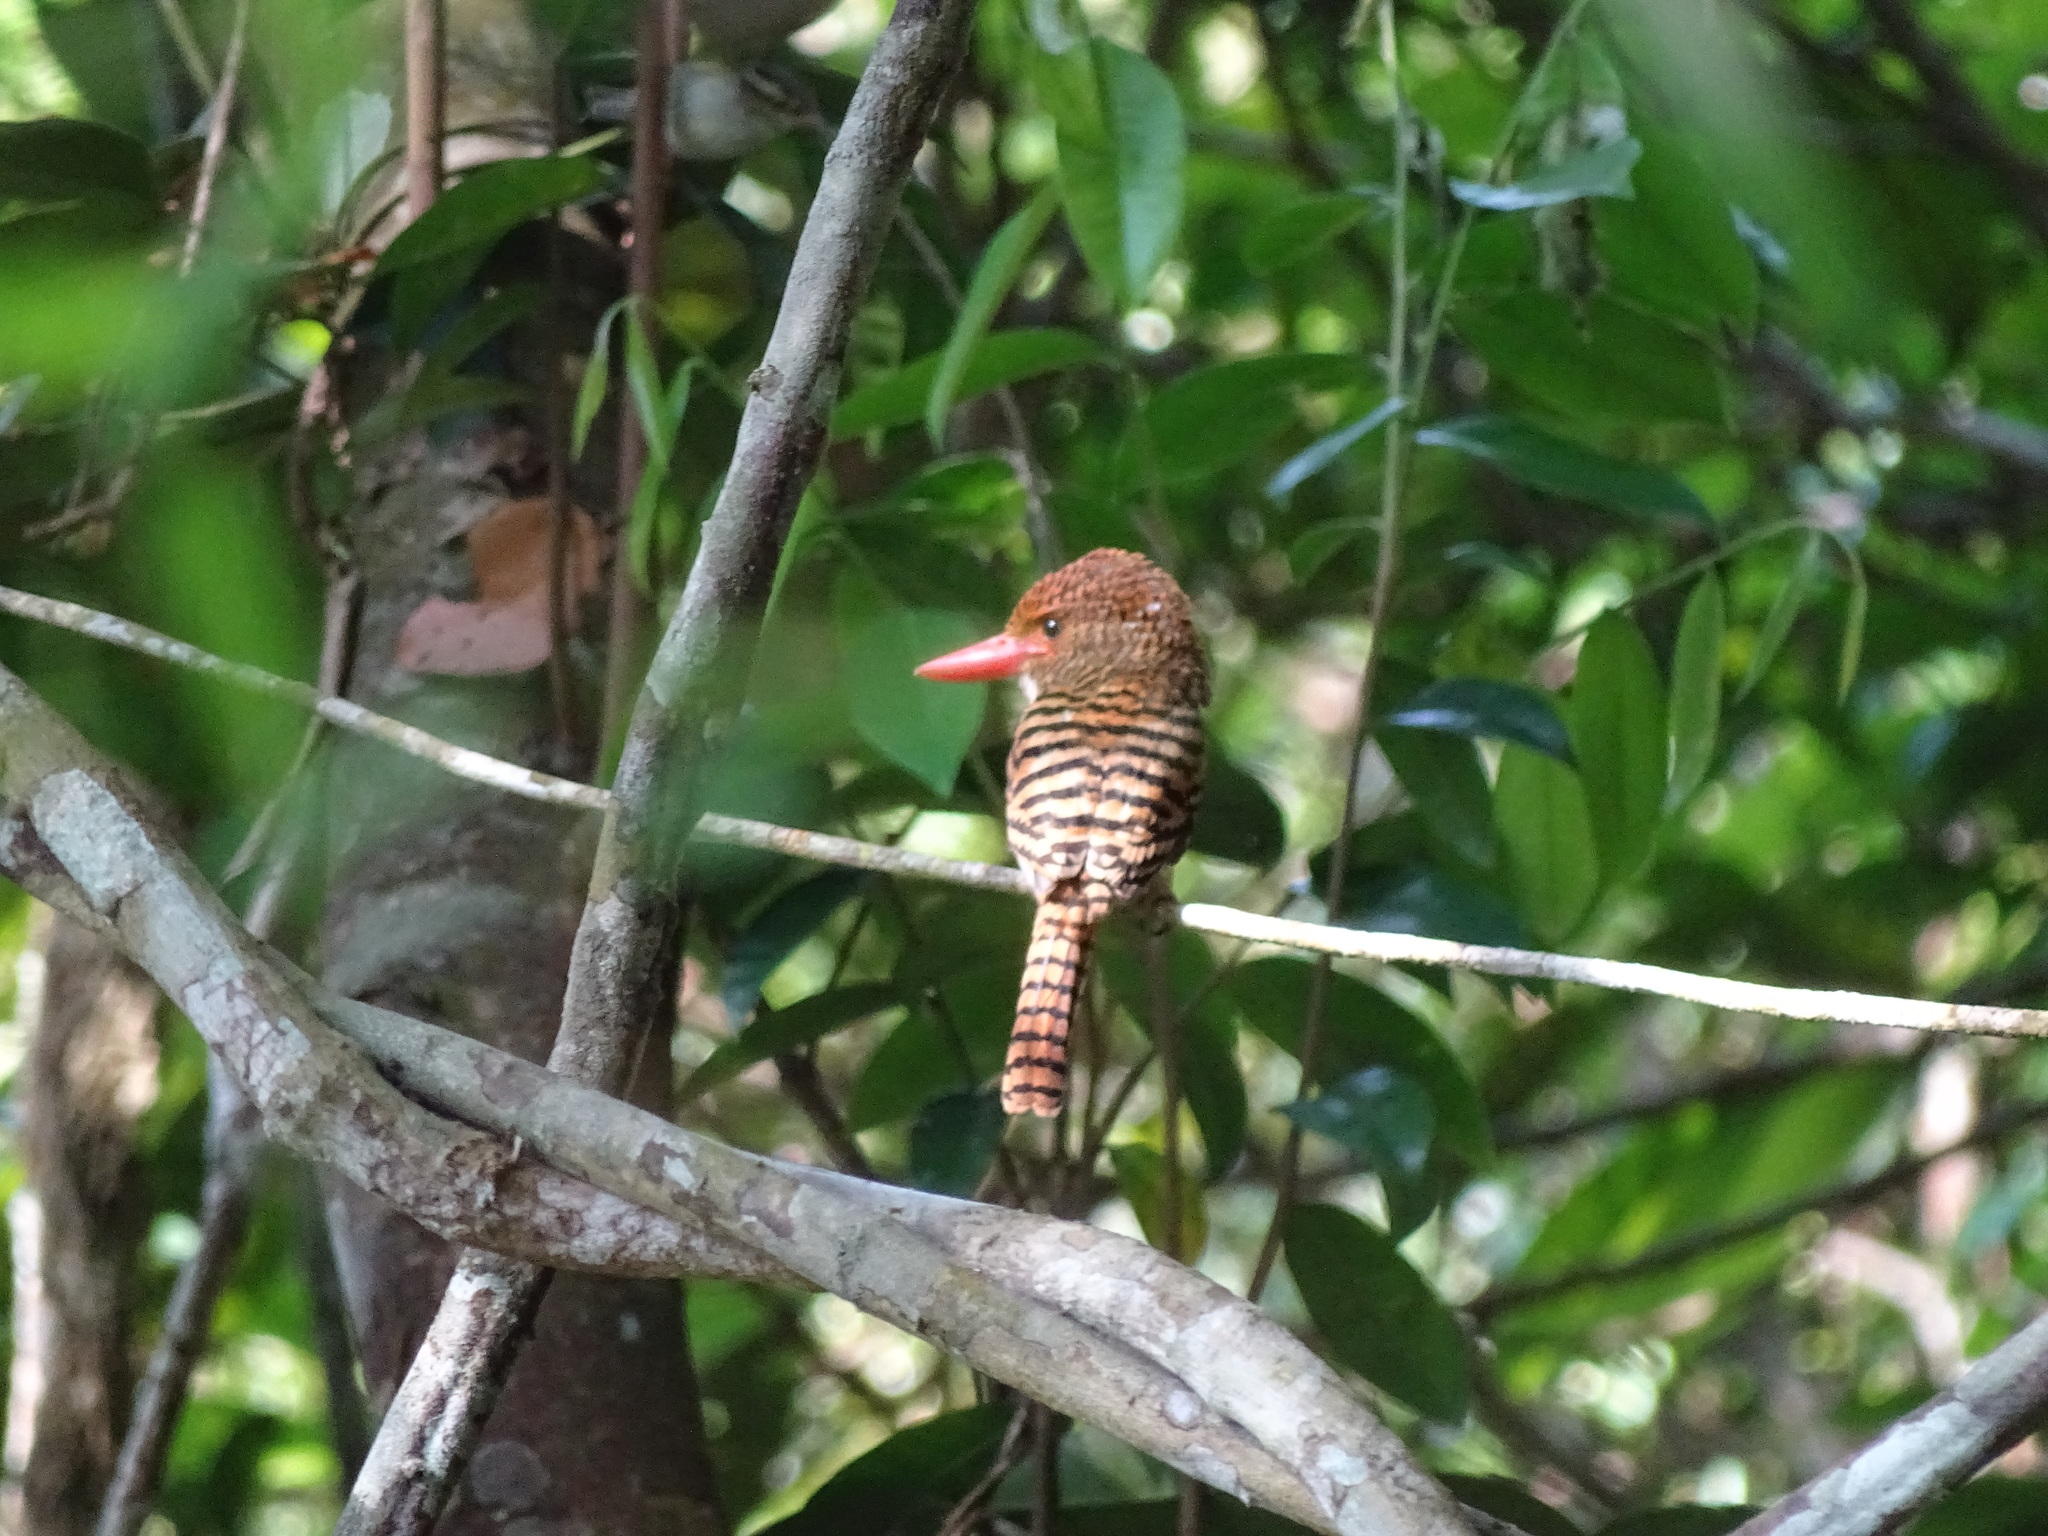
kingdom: Animalia
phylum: Chordata
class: Aves
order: Coraciiformes
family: Alcedinidae
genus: Lacedo
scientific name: Lacedo pulchella
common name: Banded kingfisher
